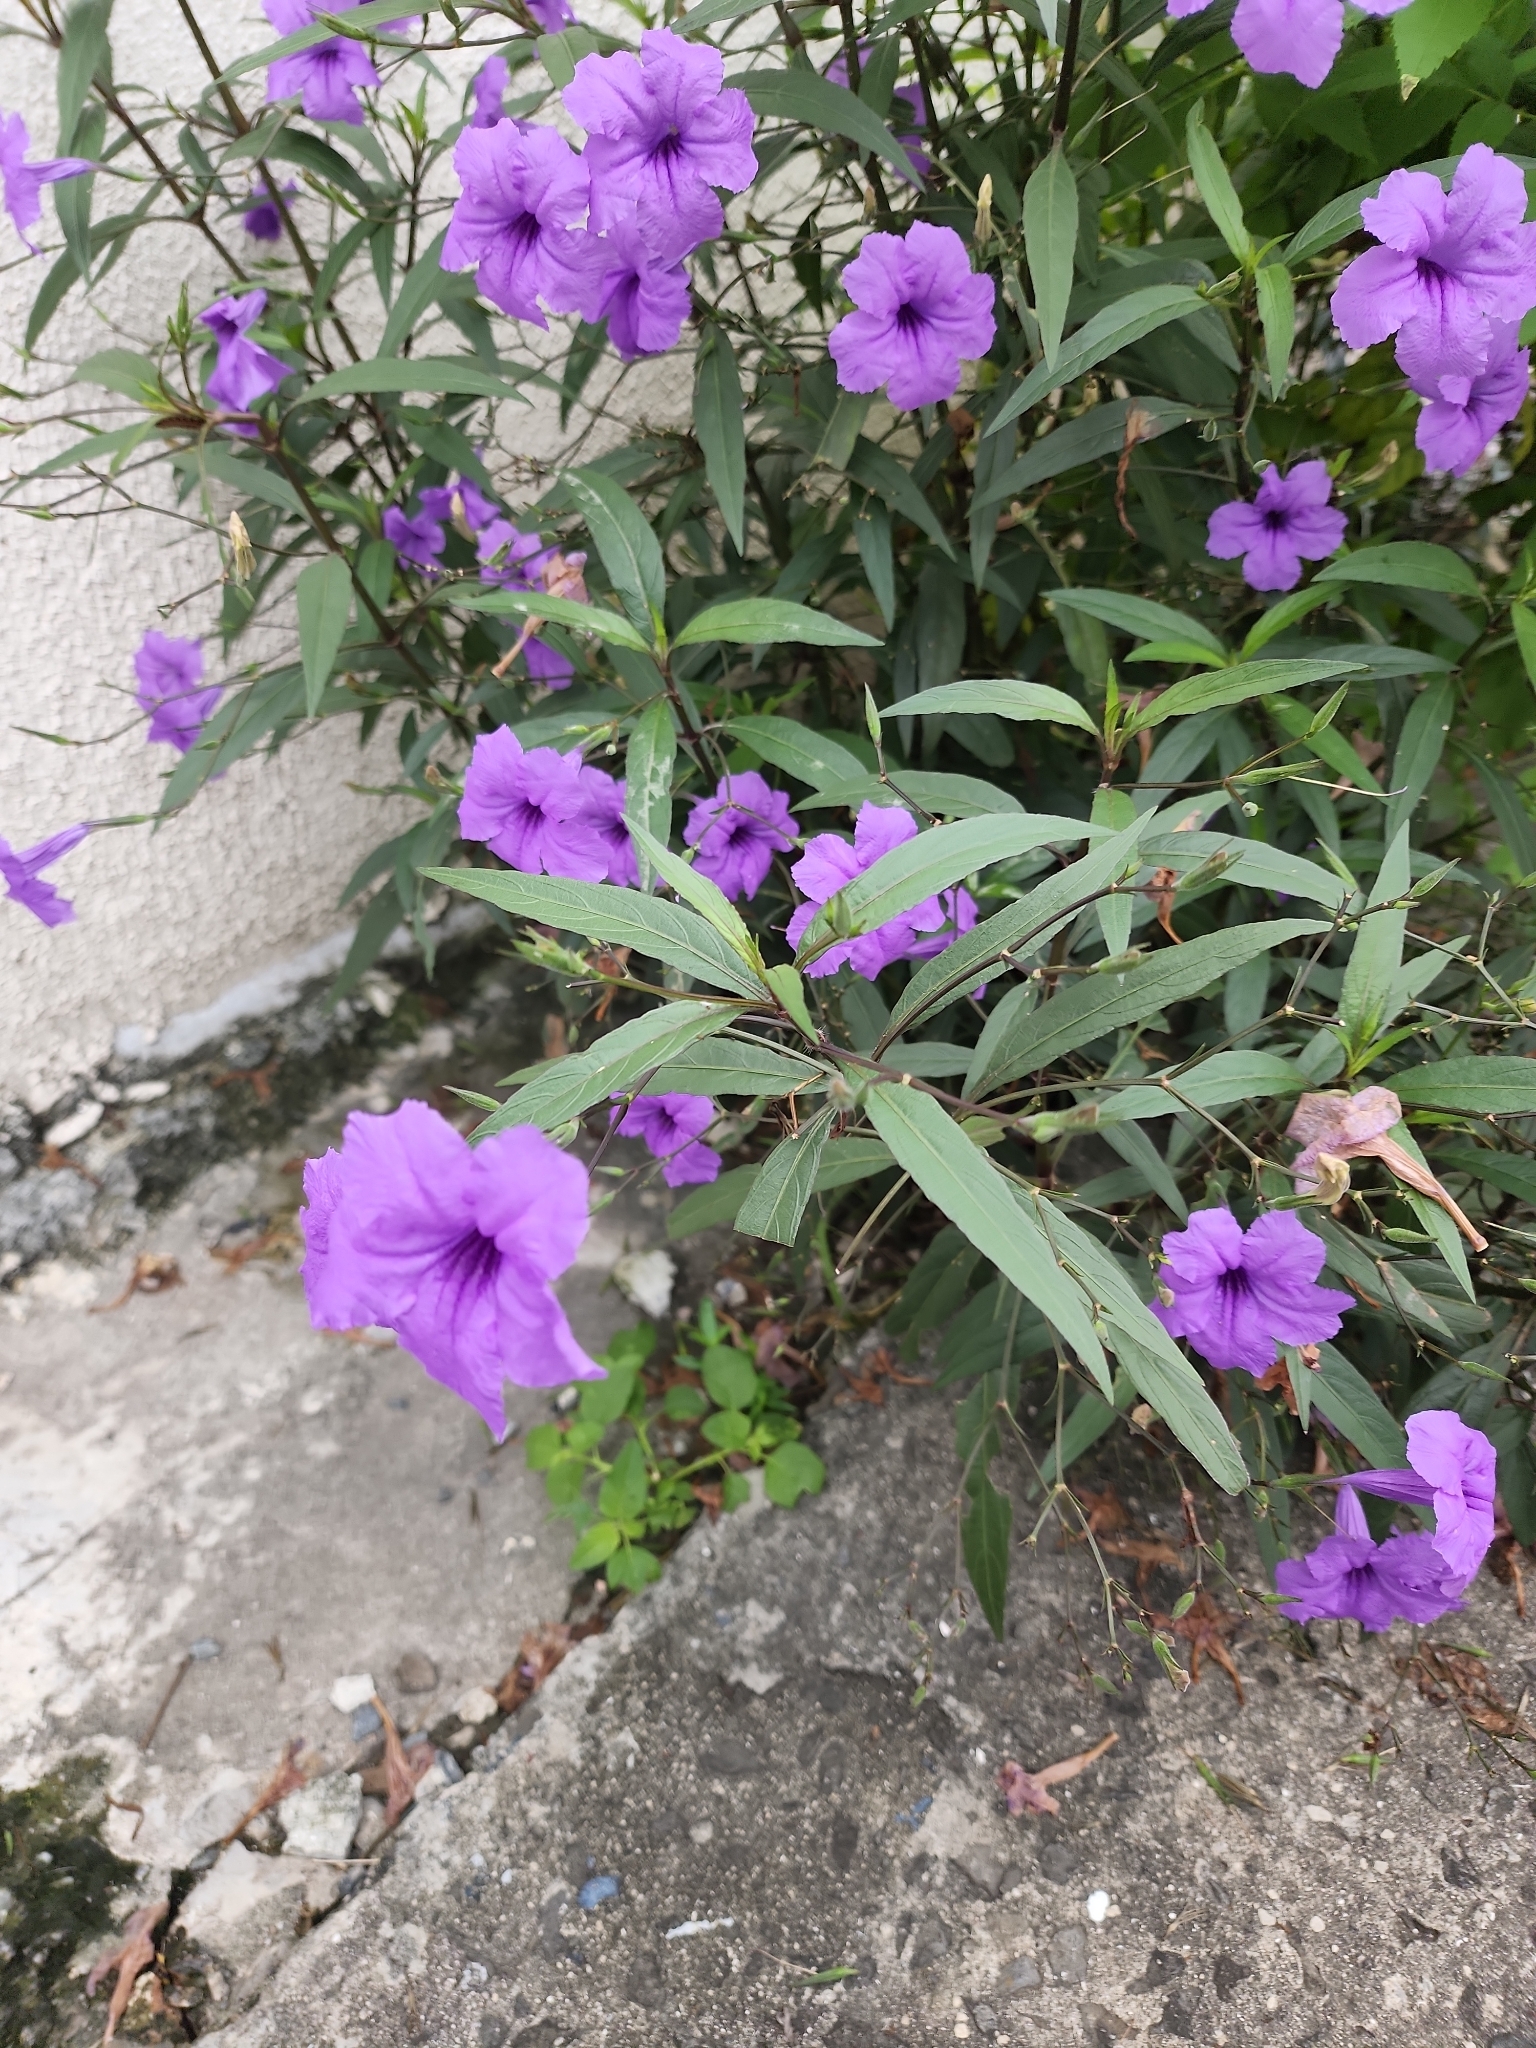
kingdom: Plantae
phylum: Tracheophyta
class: Magnoliopsida
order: Lamiales
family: Acanthaceae
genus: Ruellia
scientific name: Ruellia simplex
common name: Softseed wild petunia
